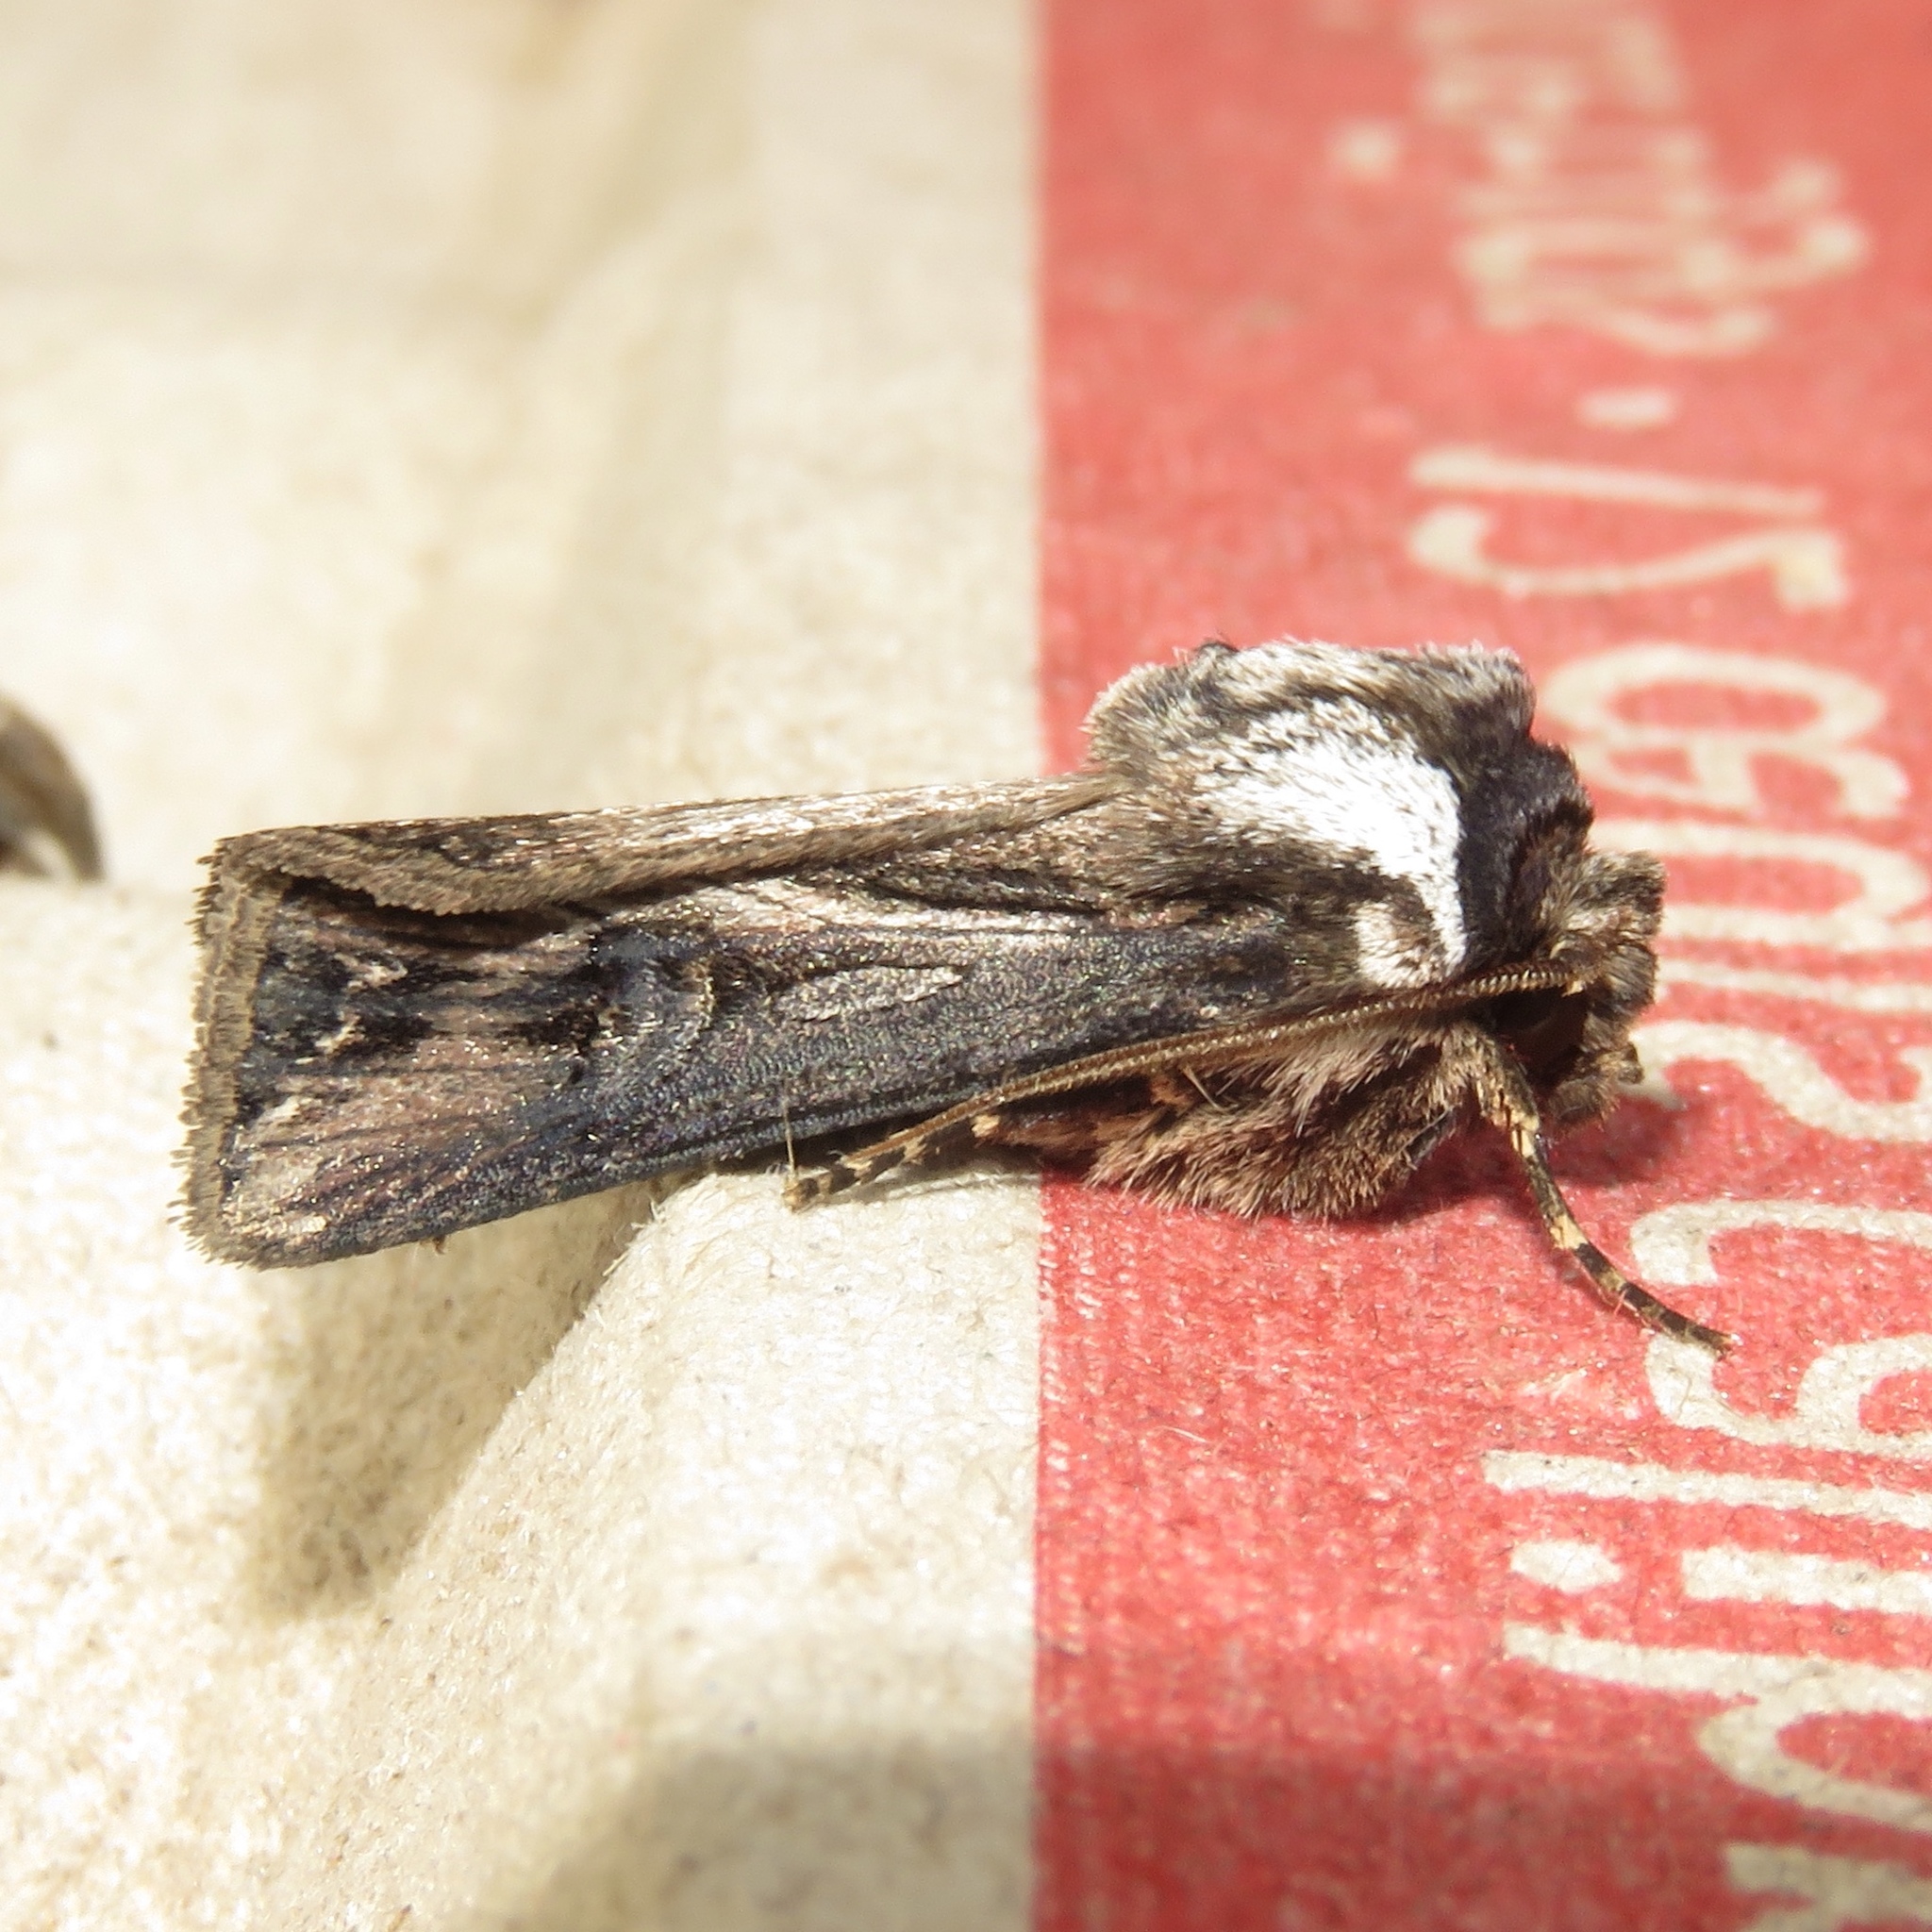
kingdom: Animalia
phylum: Arthropoda
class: Insecta
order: Lepidoptera
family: Noctuidae
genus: Agrotis
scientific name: Agrotis venerabilis
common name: Venerable dart
